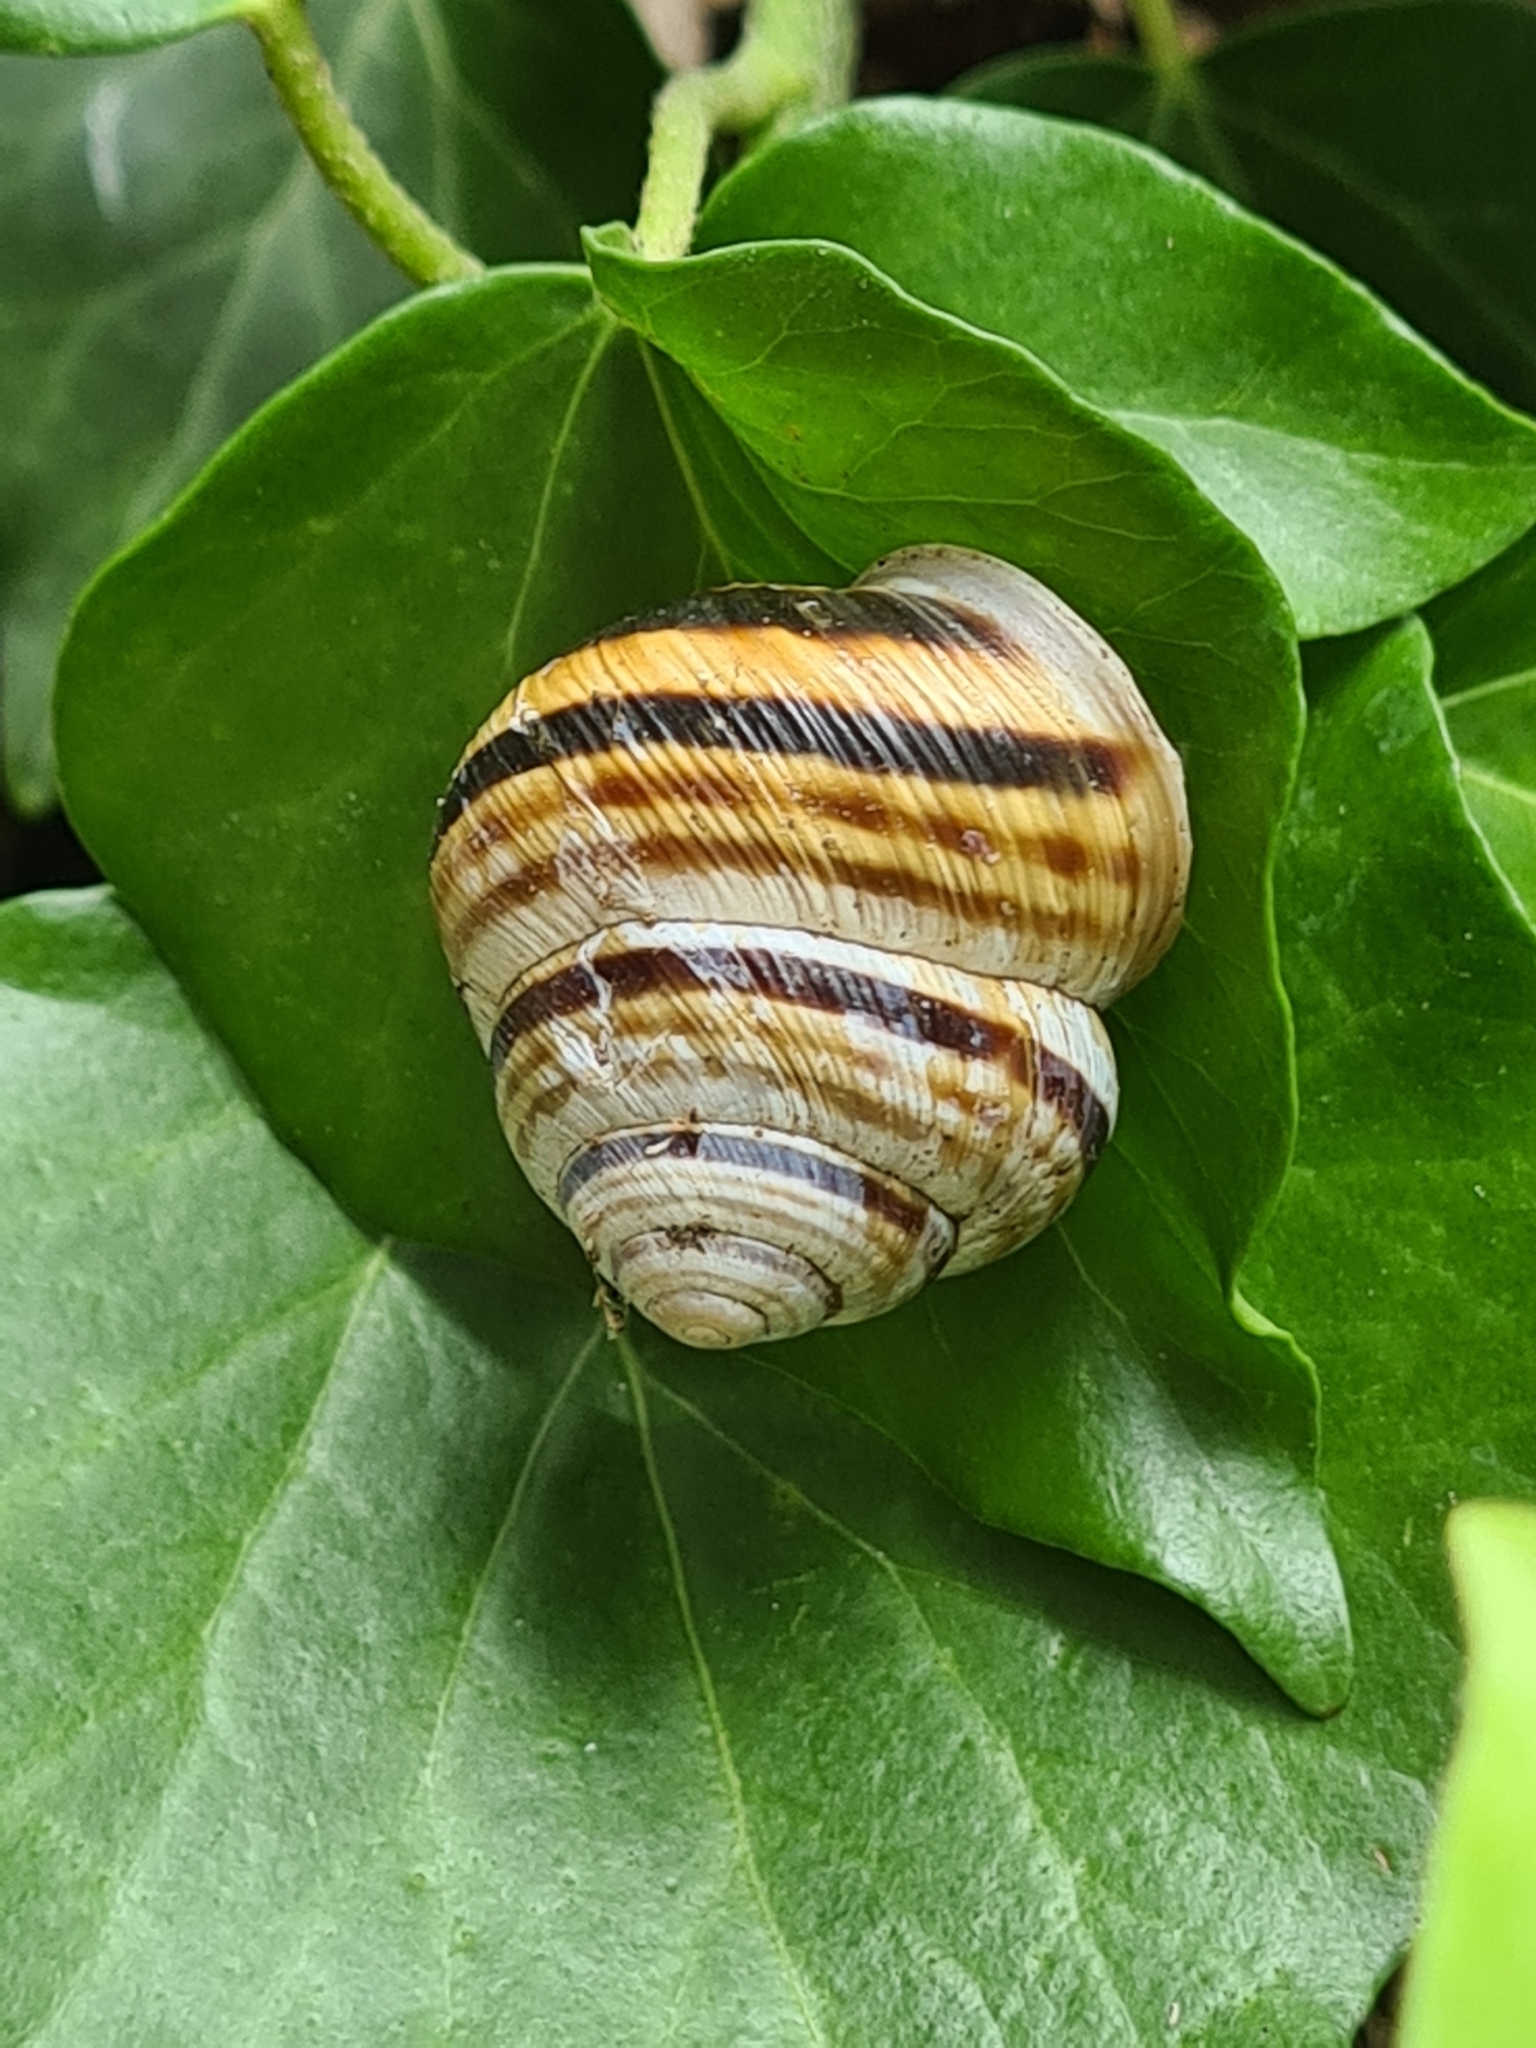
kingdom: Animalia
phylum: Mollusca
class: Gastropoda
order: Stylommatophora
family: Helicidae
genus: Caucasotachea
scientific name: Caucasotachea vindobonensis
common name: European helicid land snail
